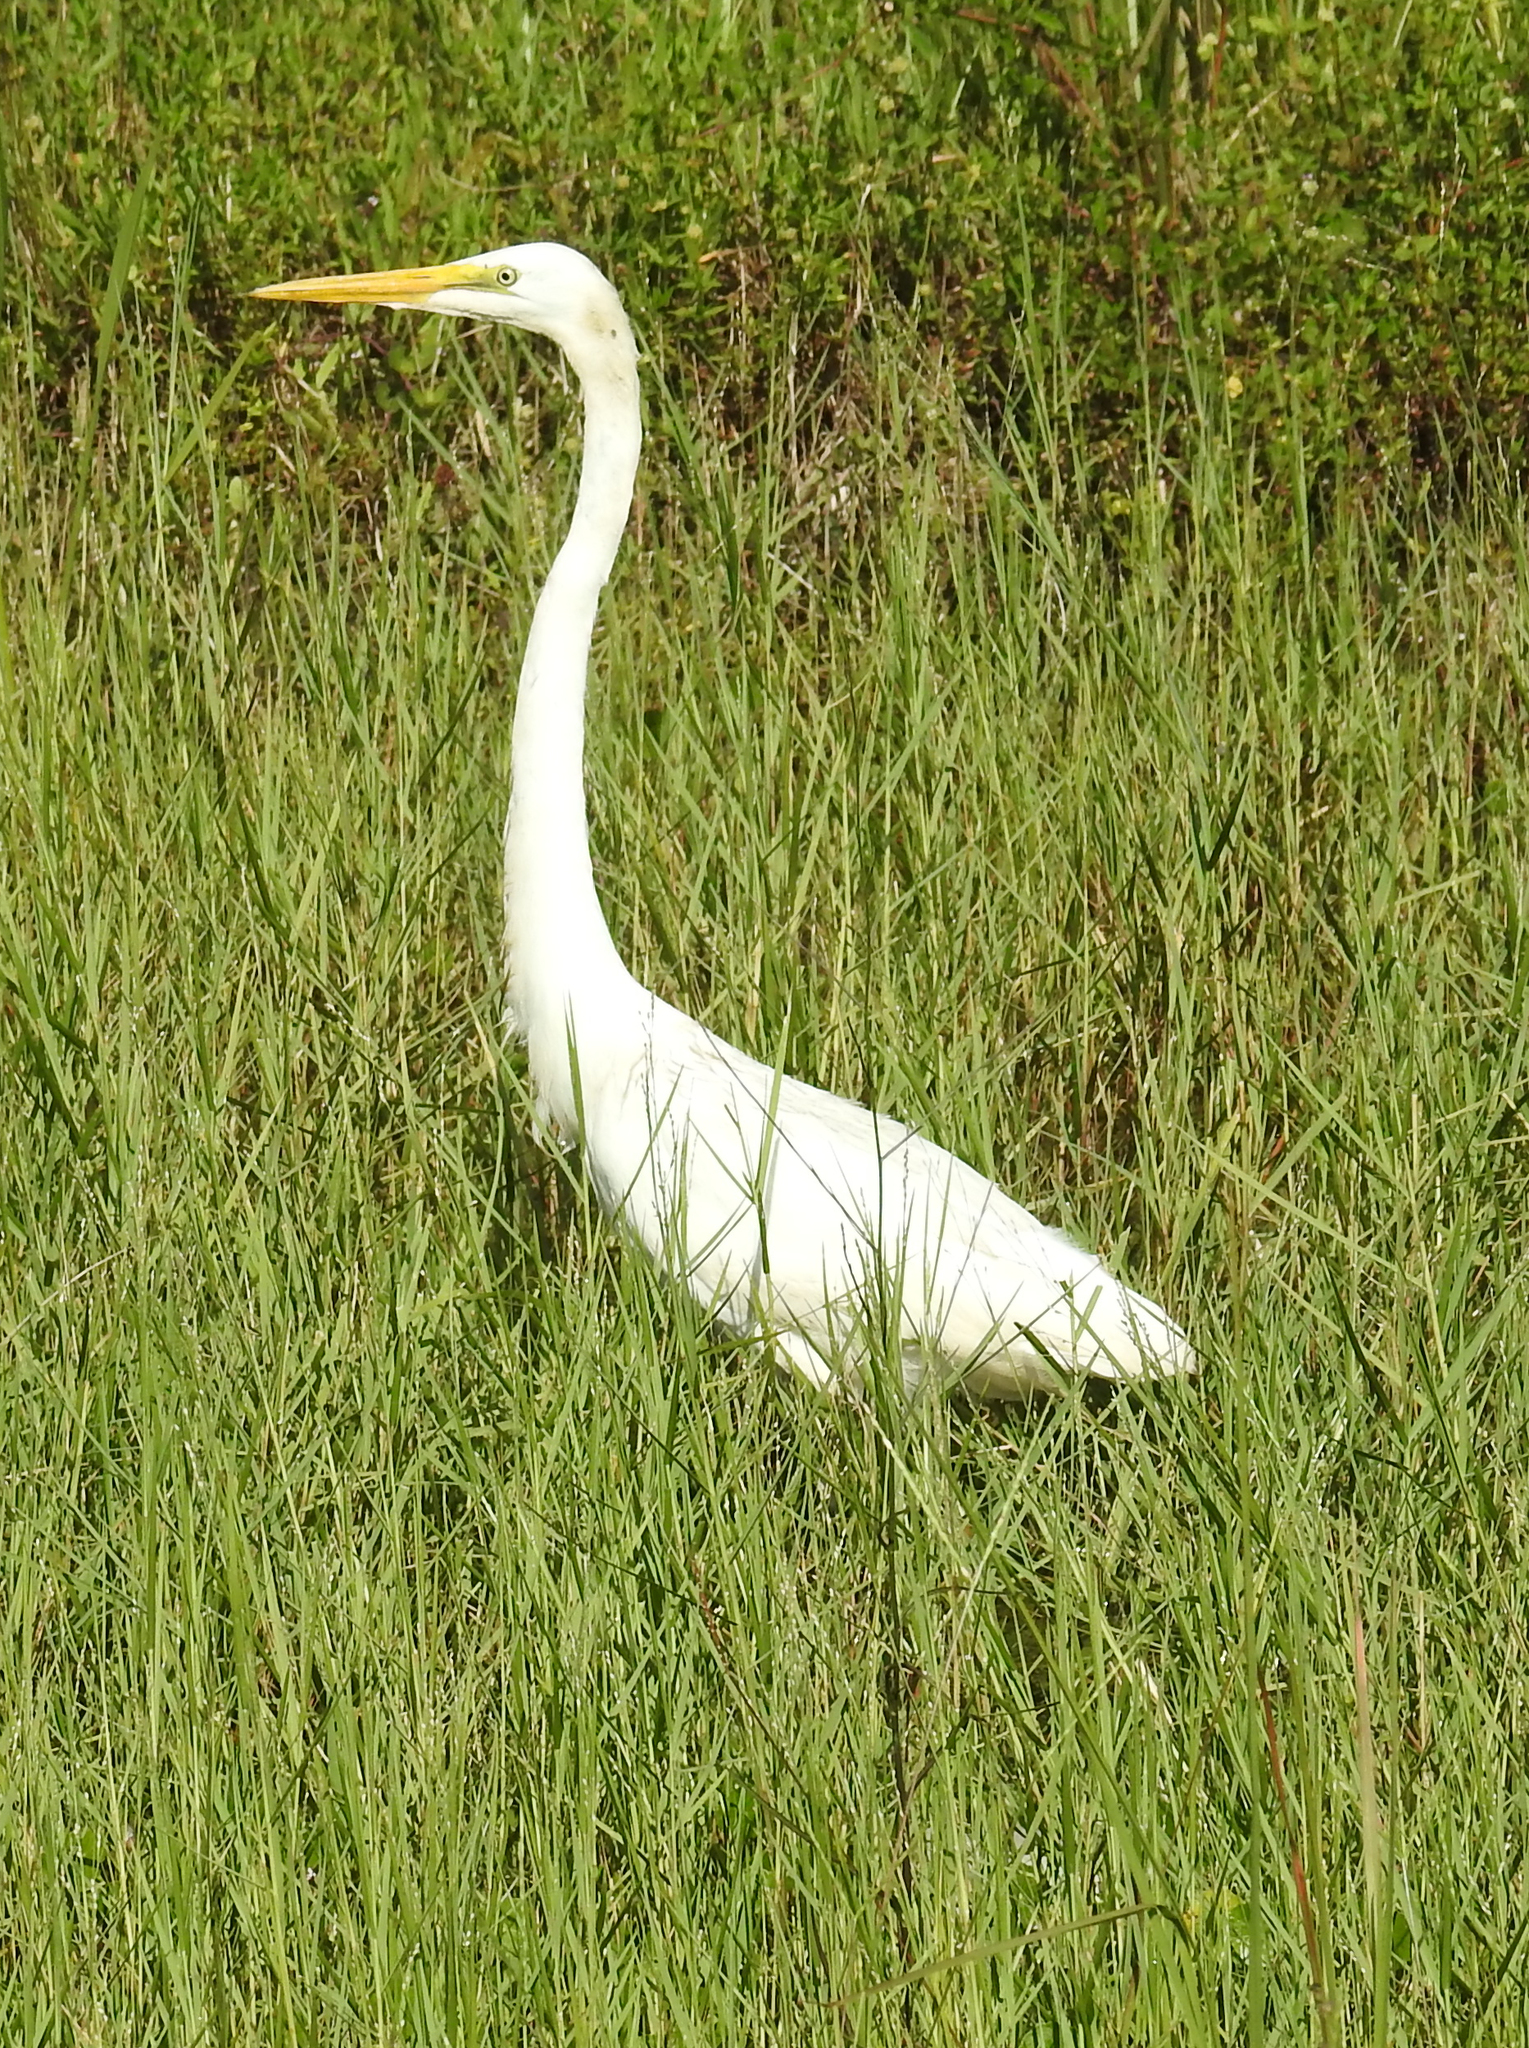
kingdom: Animalia
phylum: Chordata
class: Aves
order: Pelecaniformes
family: Ardeidae
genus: Ardea
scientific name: Ardea alba
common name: Great egret
